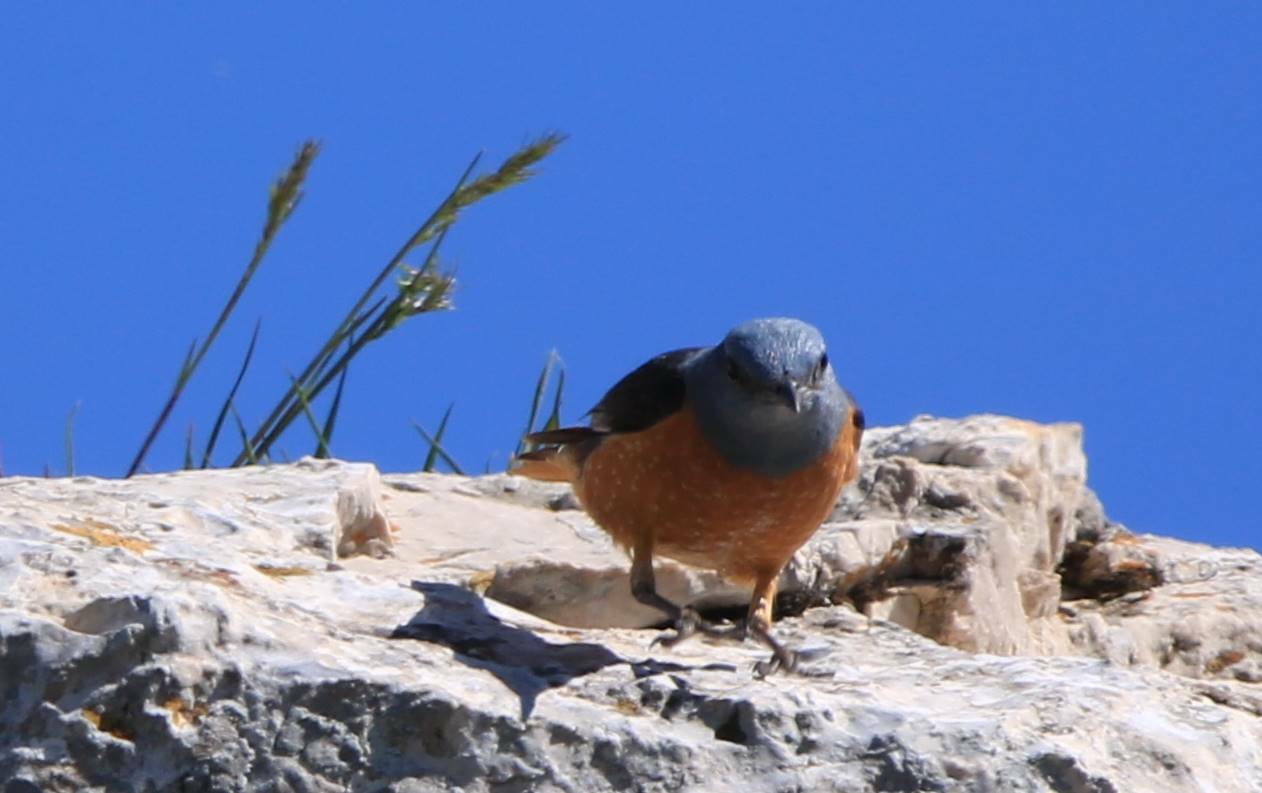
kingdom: Animalia
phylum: Chordata
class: Aves
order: Passeriformes
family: Muscicapidae
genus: Monticola
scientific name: Monticola saxatilis
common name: Rufous-tailed rock thrush
